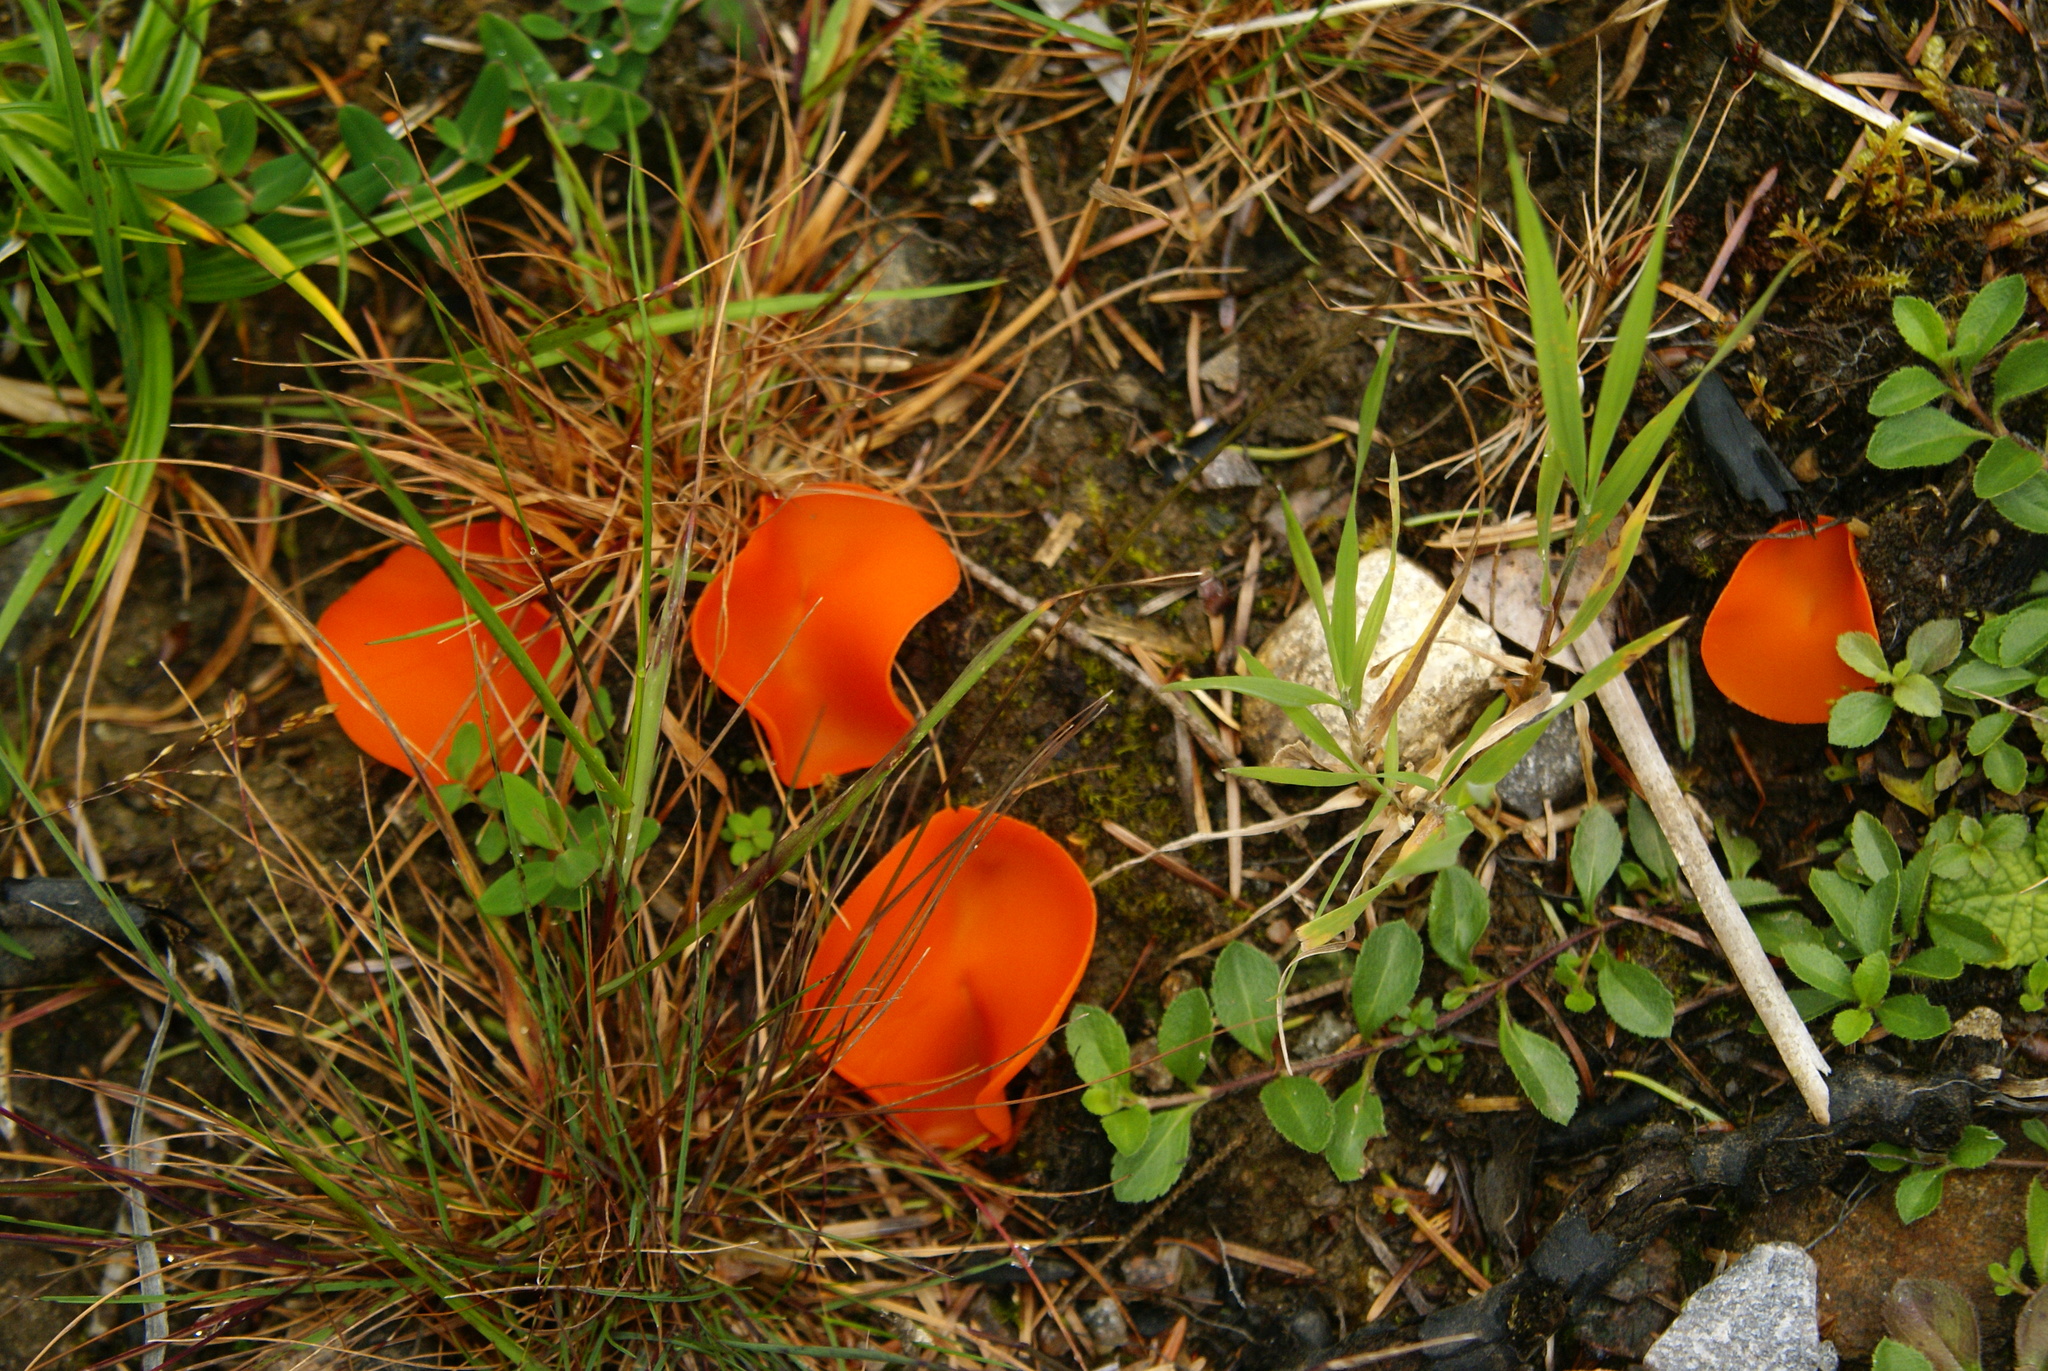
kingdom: Fungi
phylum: Ascomycota
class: Pezizomycetes
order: Pezizales
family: Pyronemataceae
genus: Aleuria
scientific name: Aleuria aurantia
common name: Orange peel fungus
